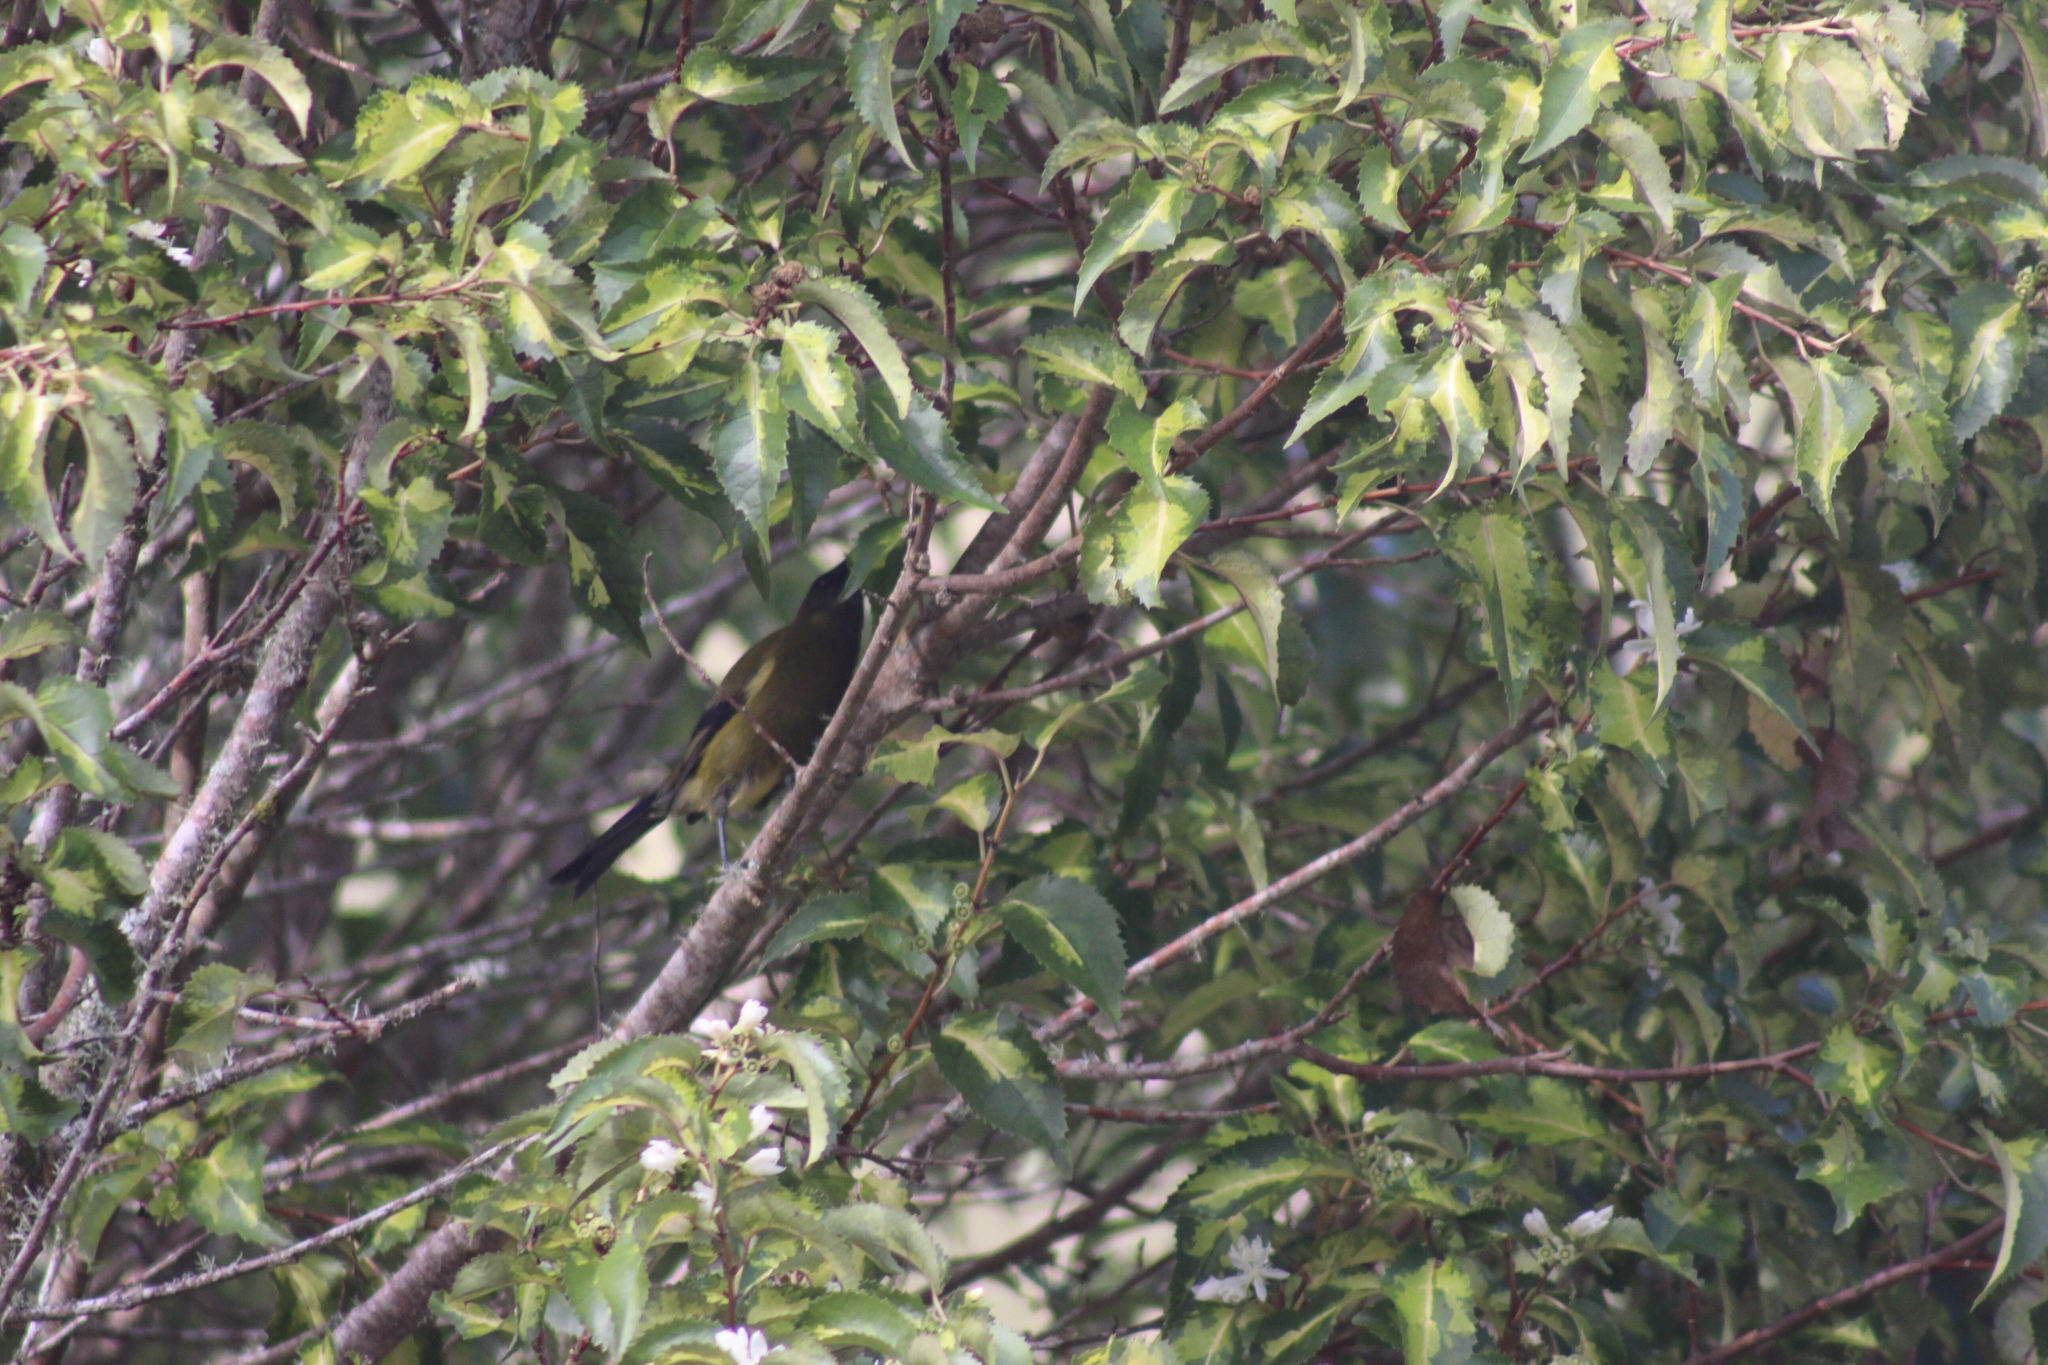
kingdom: Animalia
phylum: Chordata
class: Aves
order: Passeriformes
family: Meliphagidae
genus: Anthornis
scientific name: Anthornis melanura
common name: New zealand bellbird
